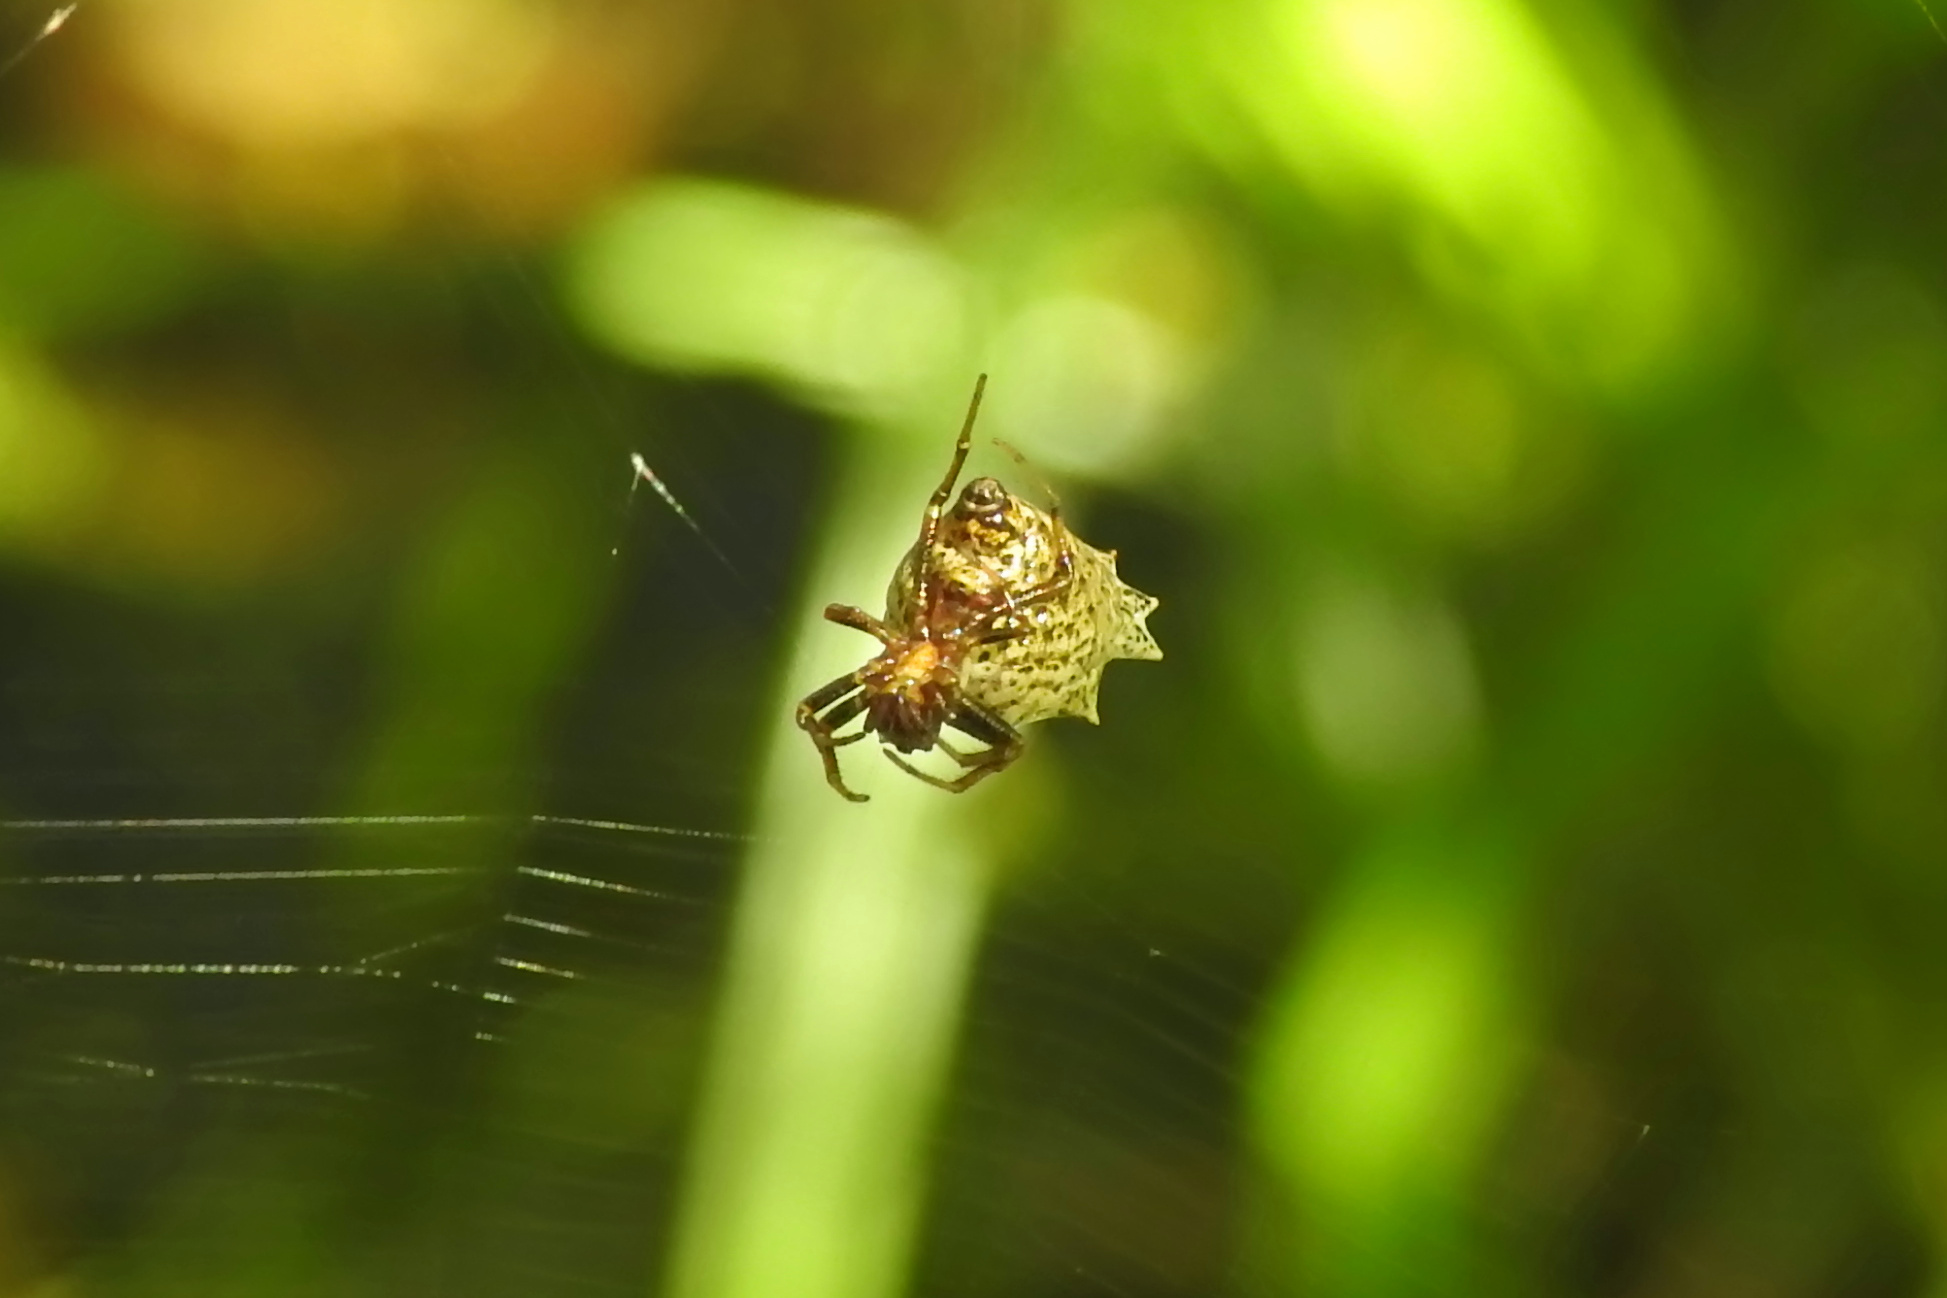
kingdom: Animalia
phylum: Arthropoda
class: Arachnida
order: Araneae
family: Araneidae
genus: Micrathena
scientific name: Micrathena gracilis
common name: Orb weavers
